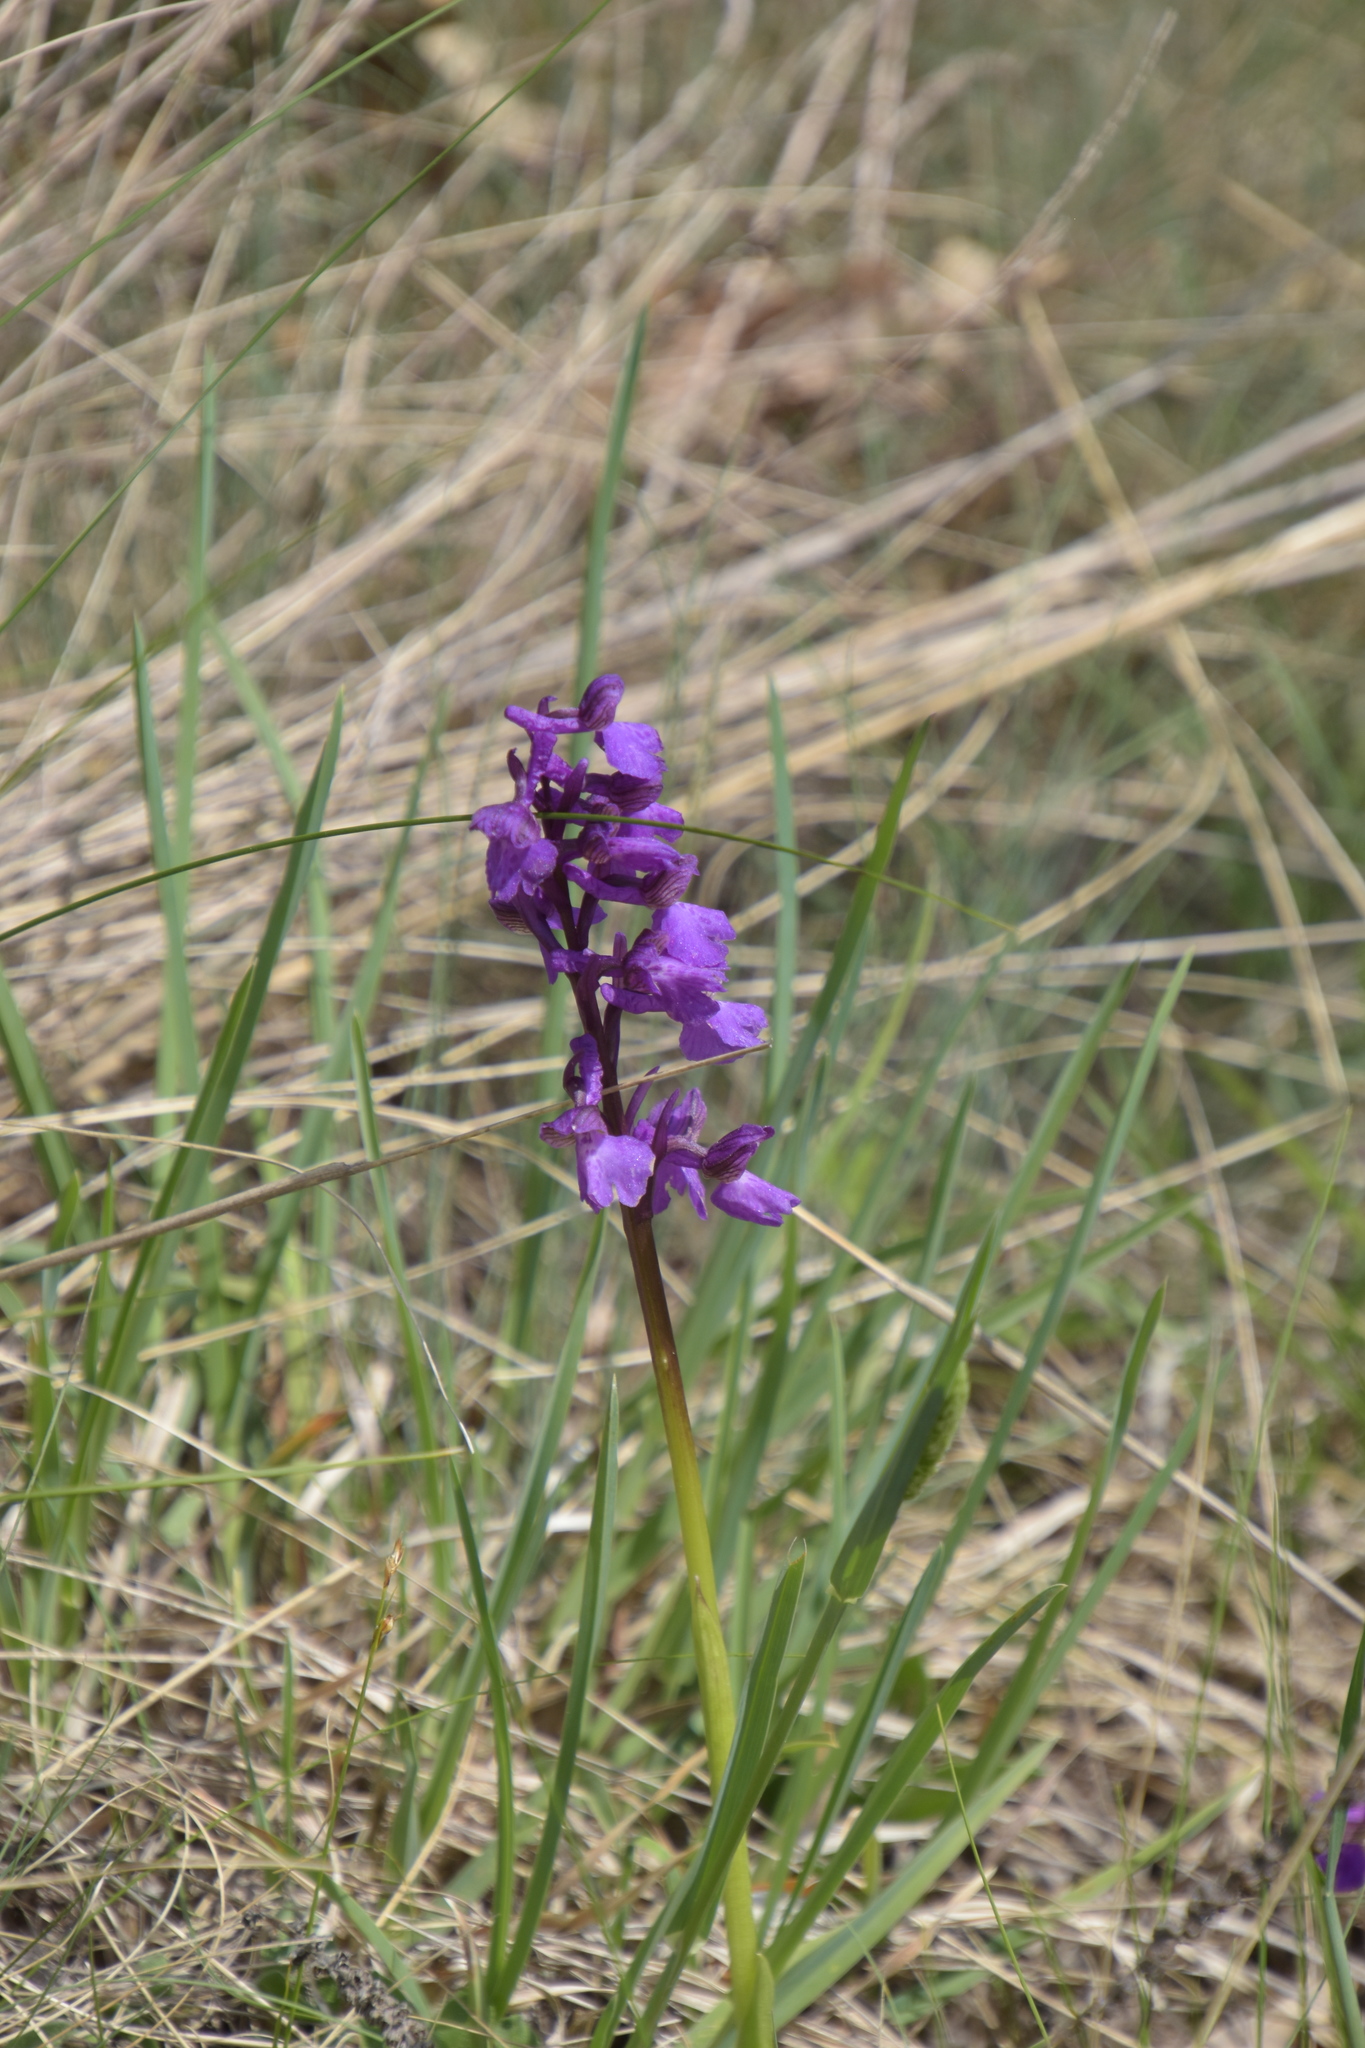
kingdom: Plantae
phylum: Tracheophyta
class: Liliopsida
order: Asparagales
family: Orchidaceae
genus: Anacamptis
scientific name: Anacamptis morio
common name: Green-winged orchid
